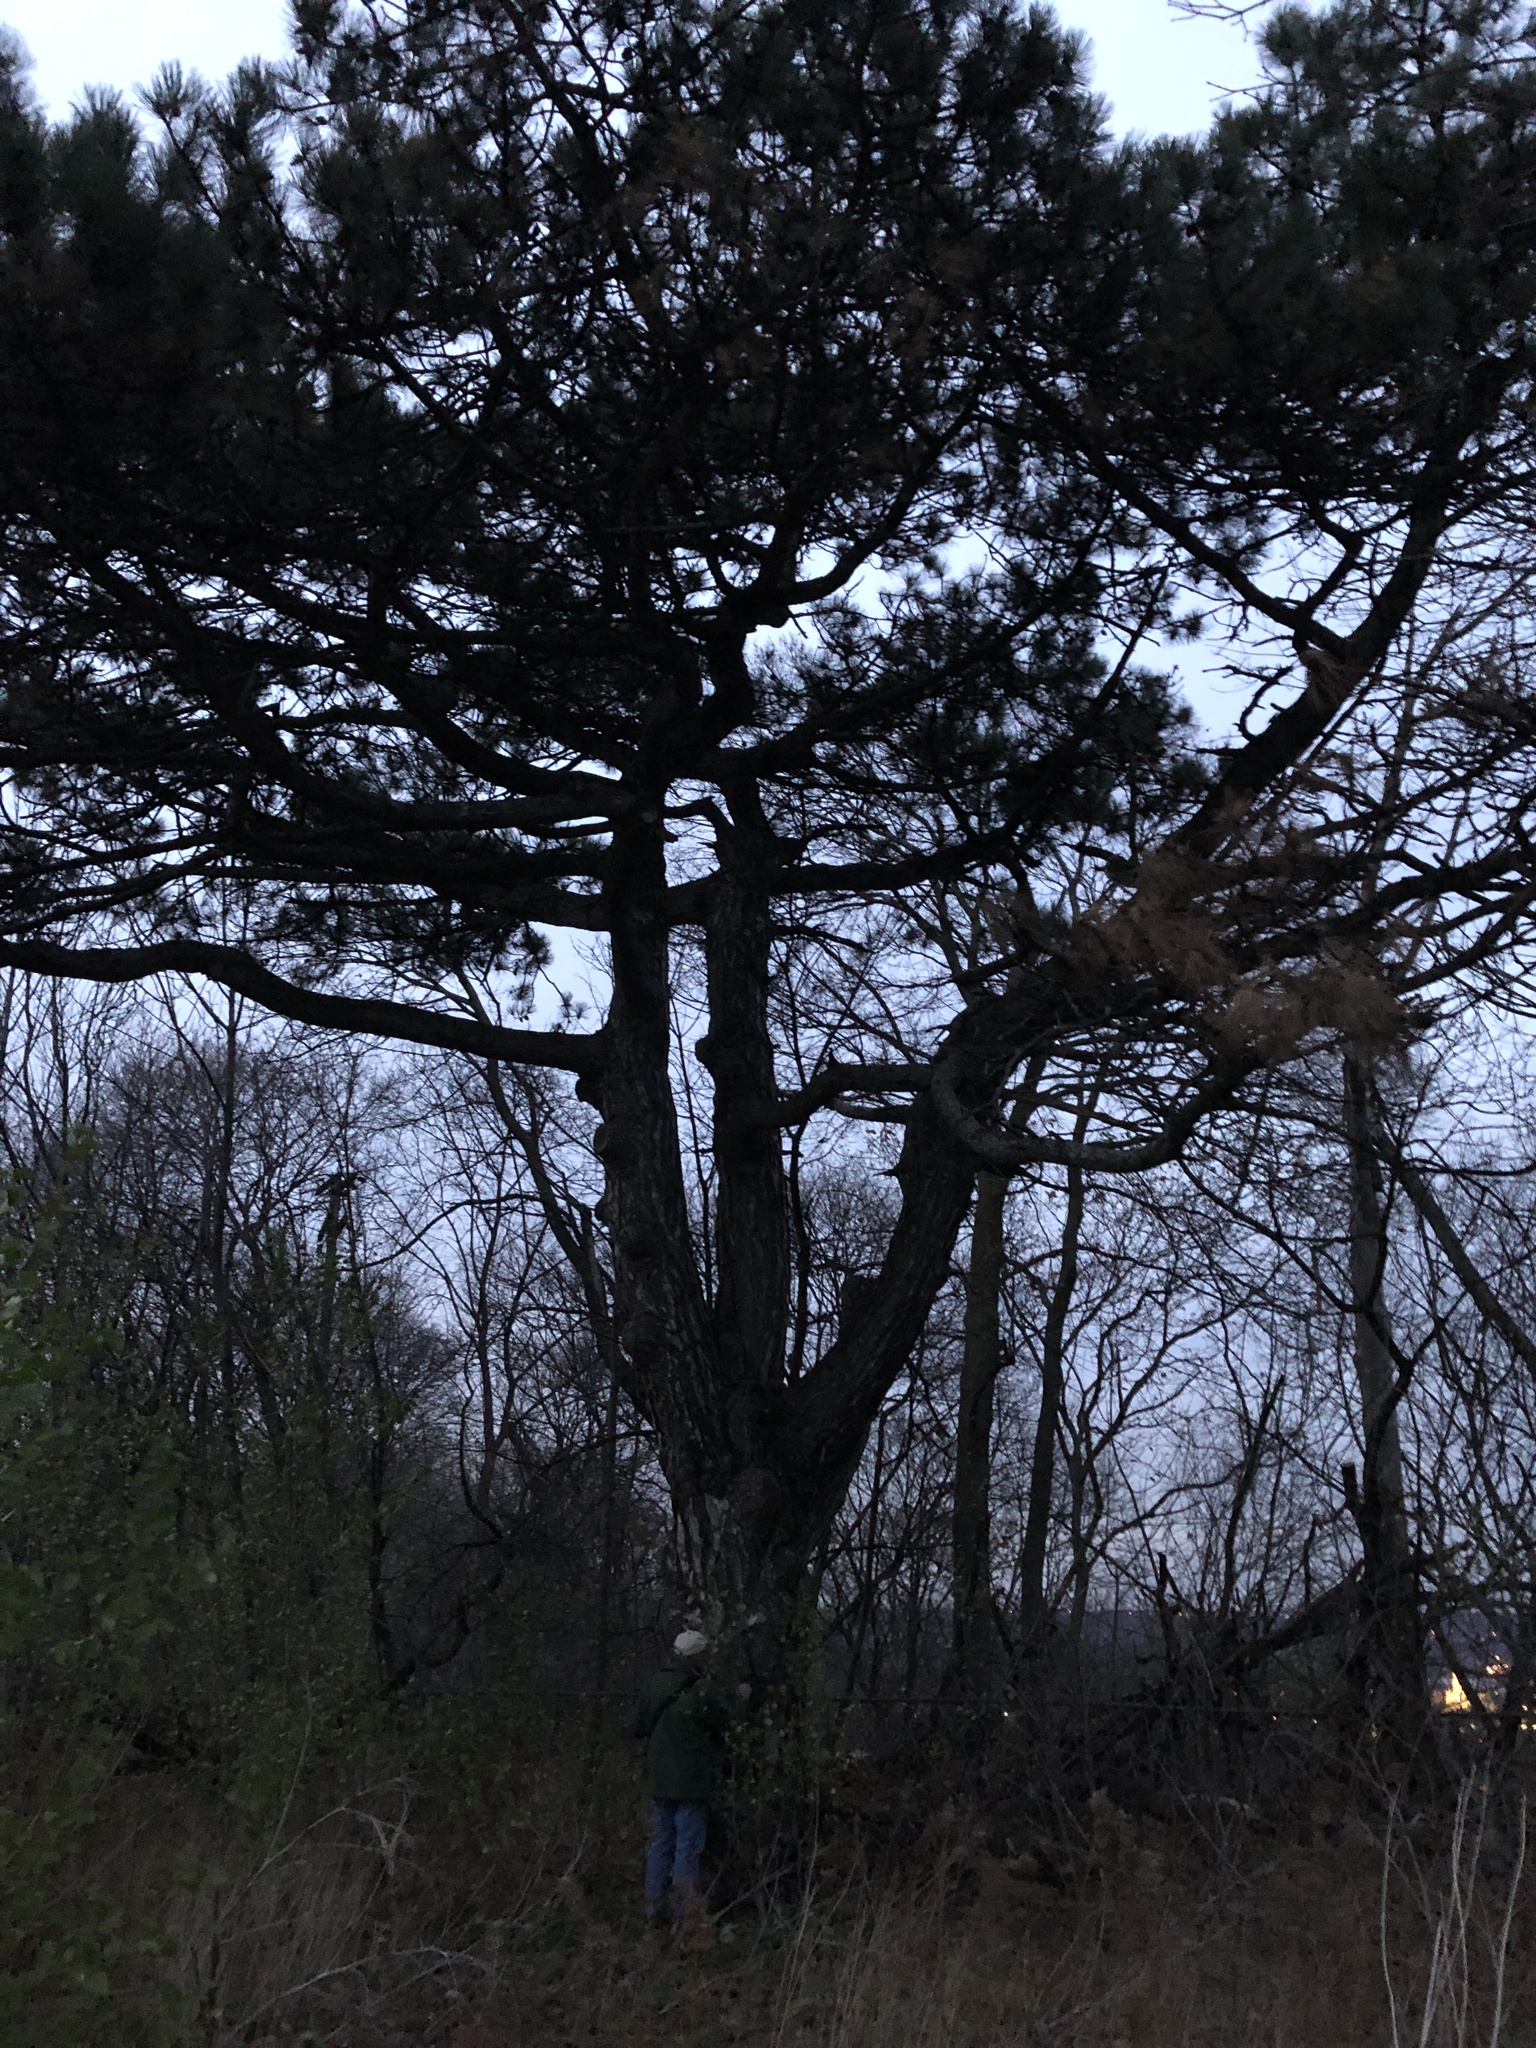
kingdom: Plantae
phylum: Tracheophyta
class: Pinopsida
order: Pinales
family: Pinaceae
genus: Pinus
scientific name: Pinus nigra
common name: Austrian pine
